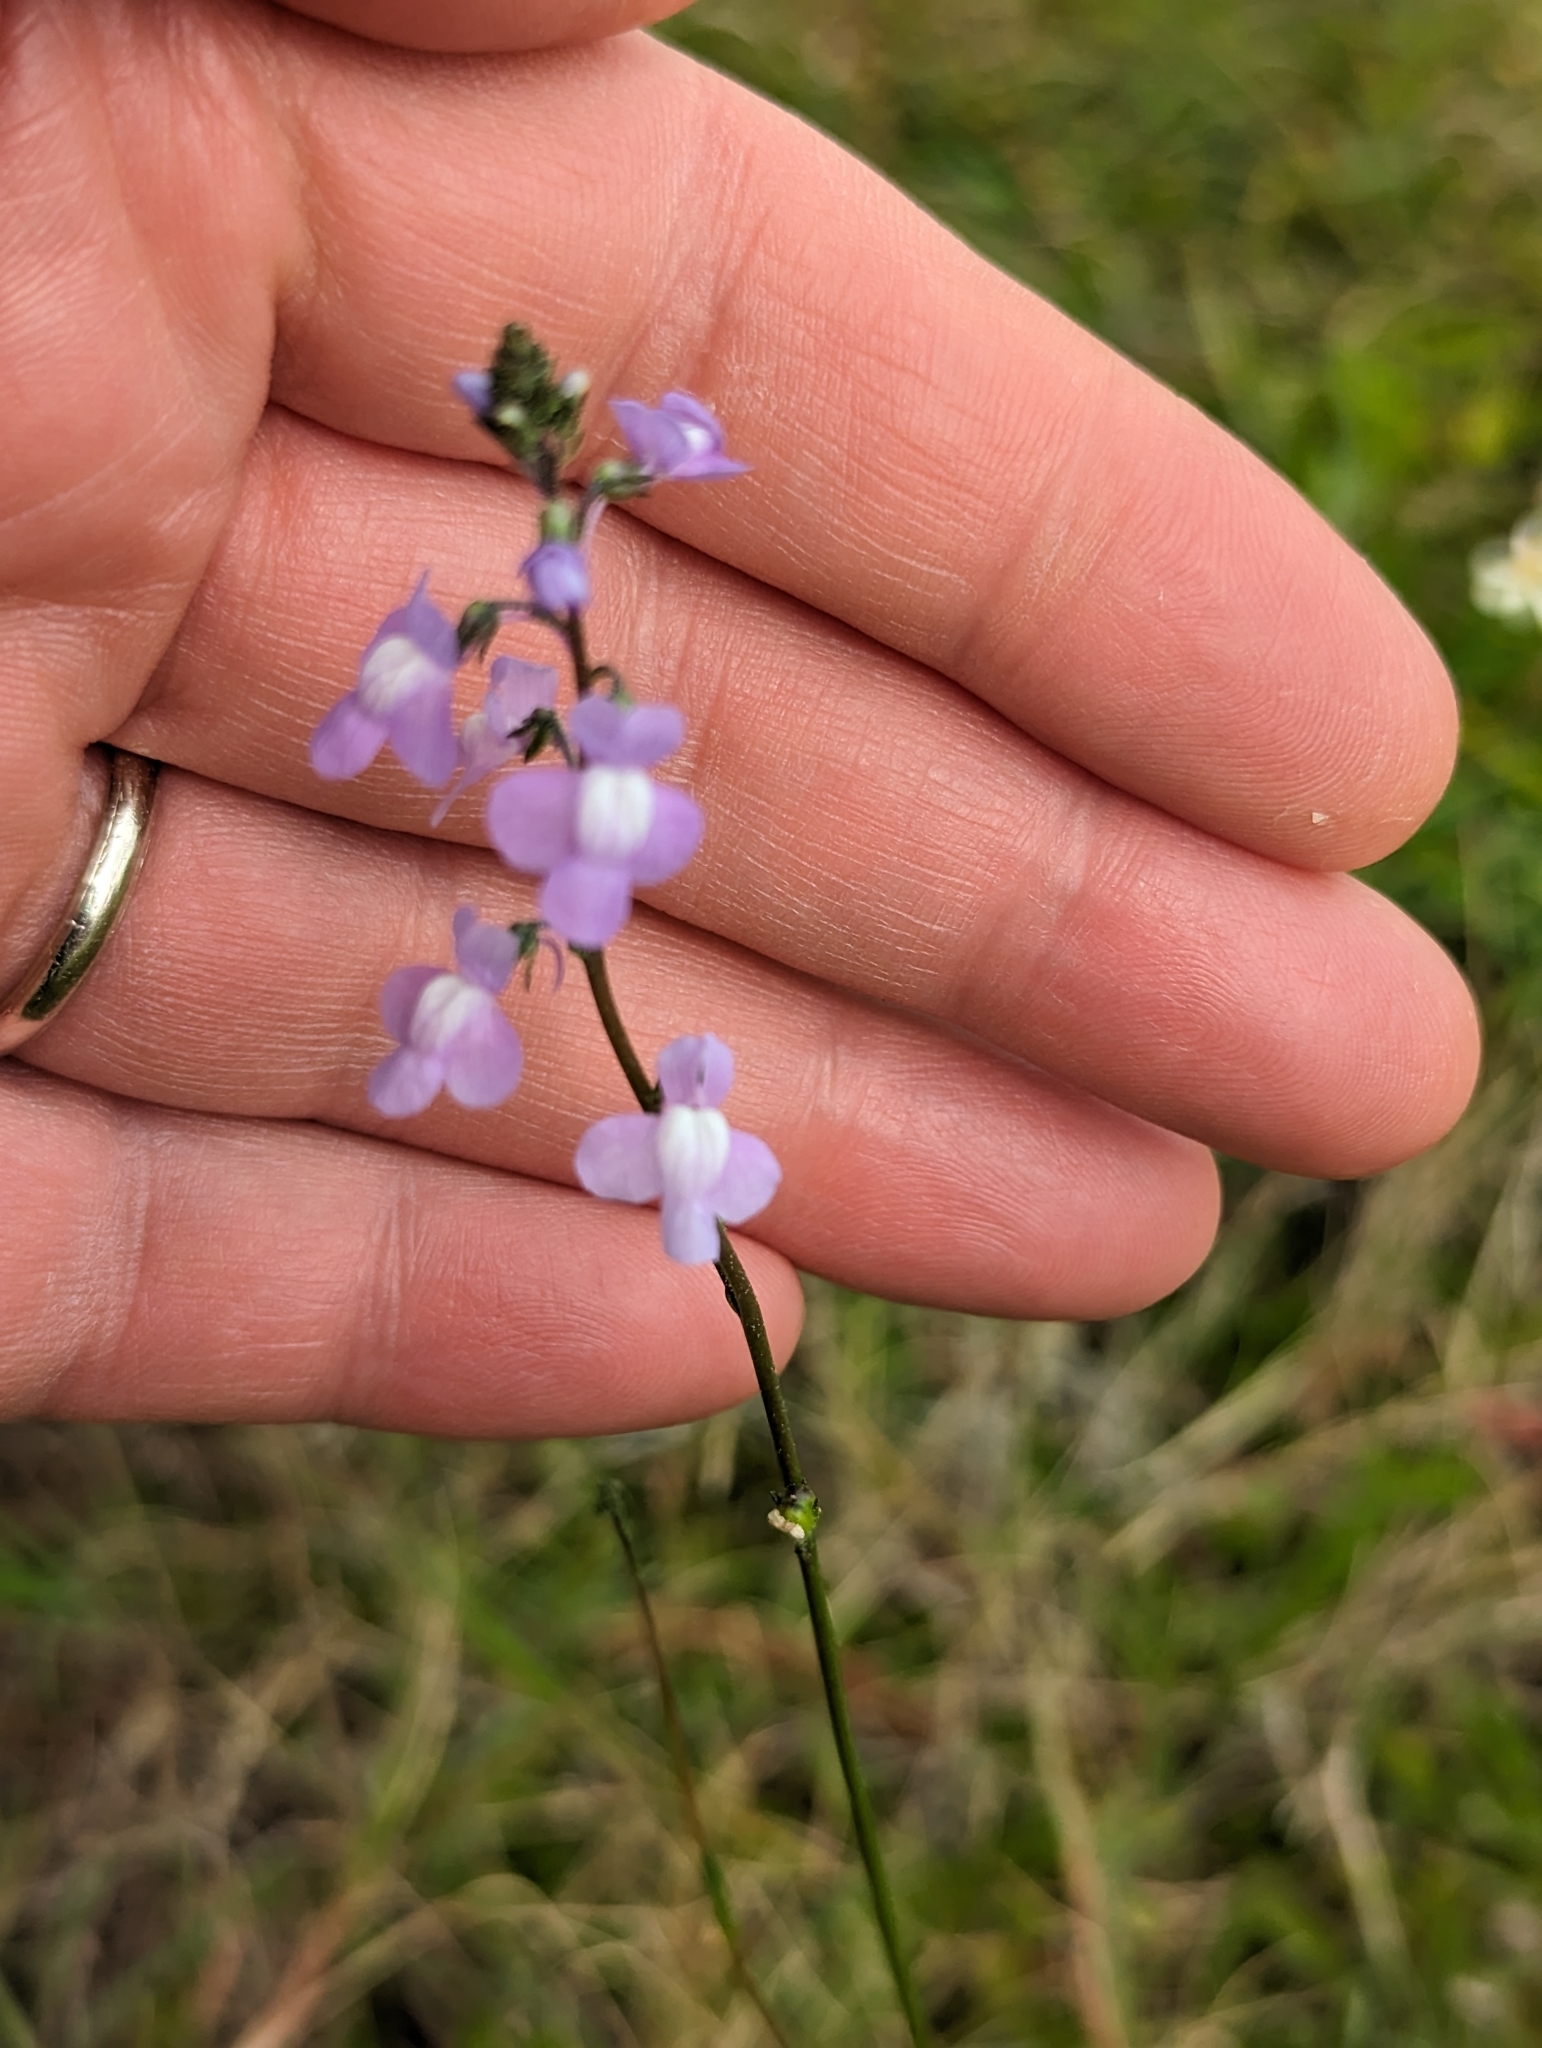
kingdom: Plantae
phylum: Tracheophyta
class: Magnoliopsida
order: Lamiales
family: Plantaginaceae
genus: Nuttallanthus
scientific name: Nuttallanthus canadensis
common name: Blue toadflax
